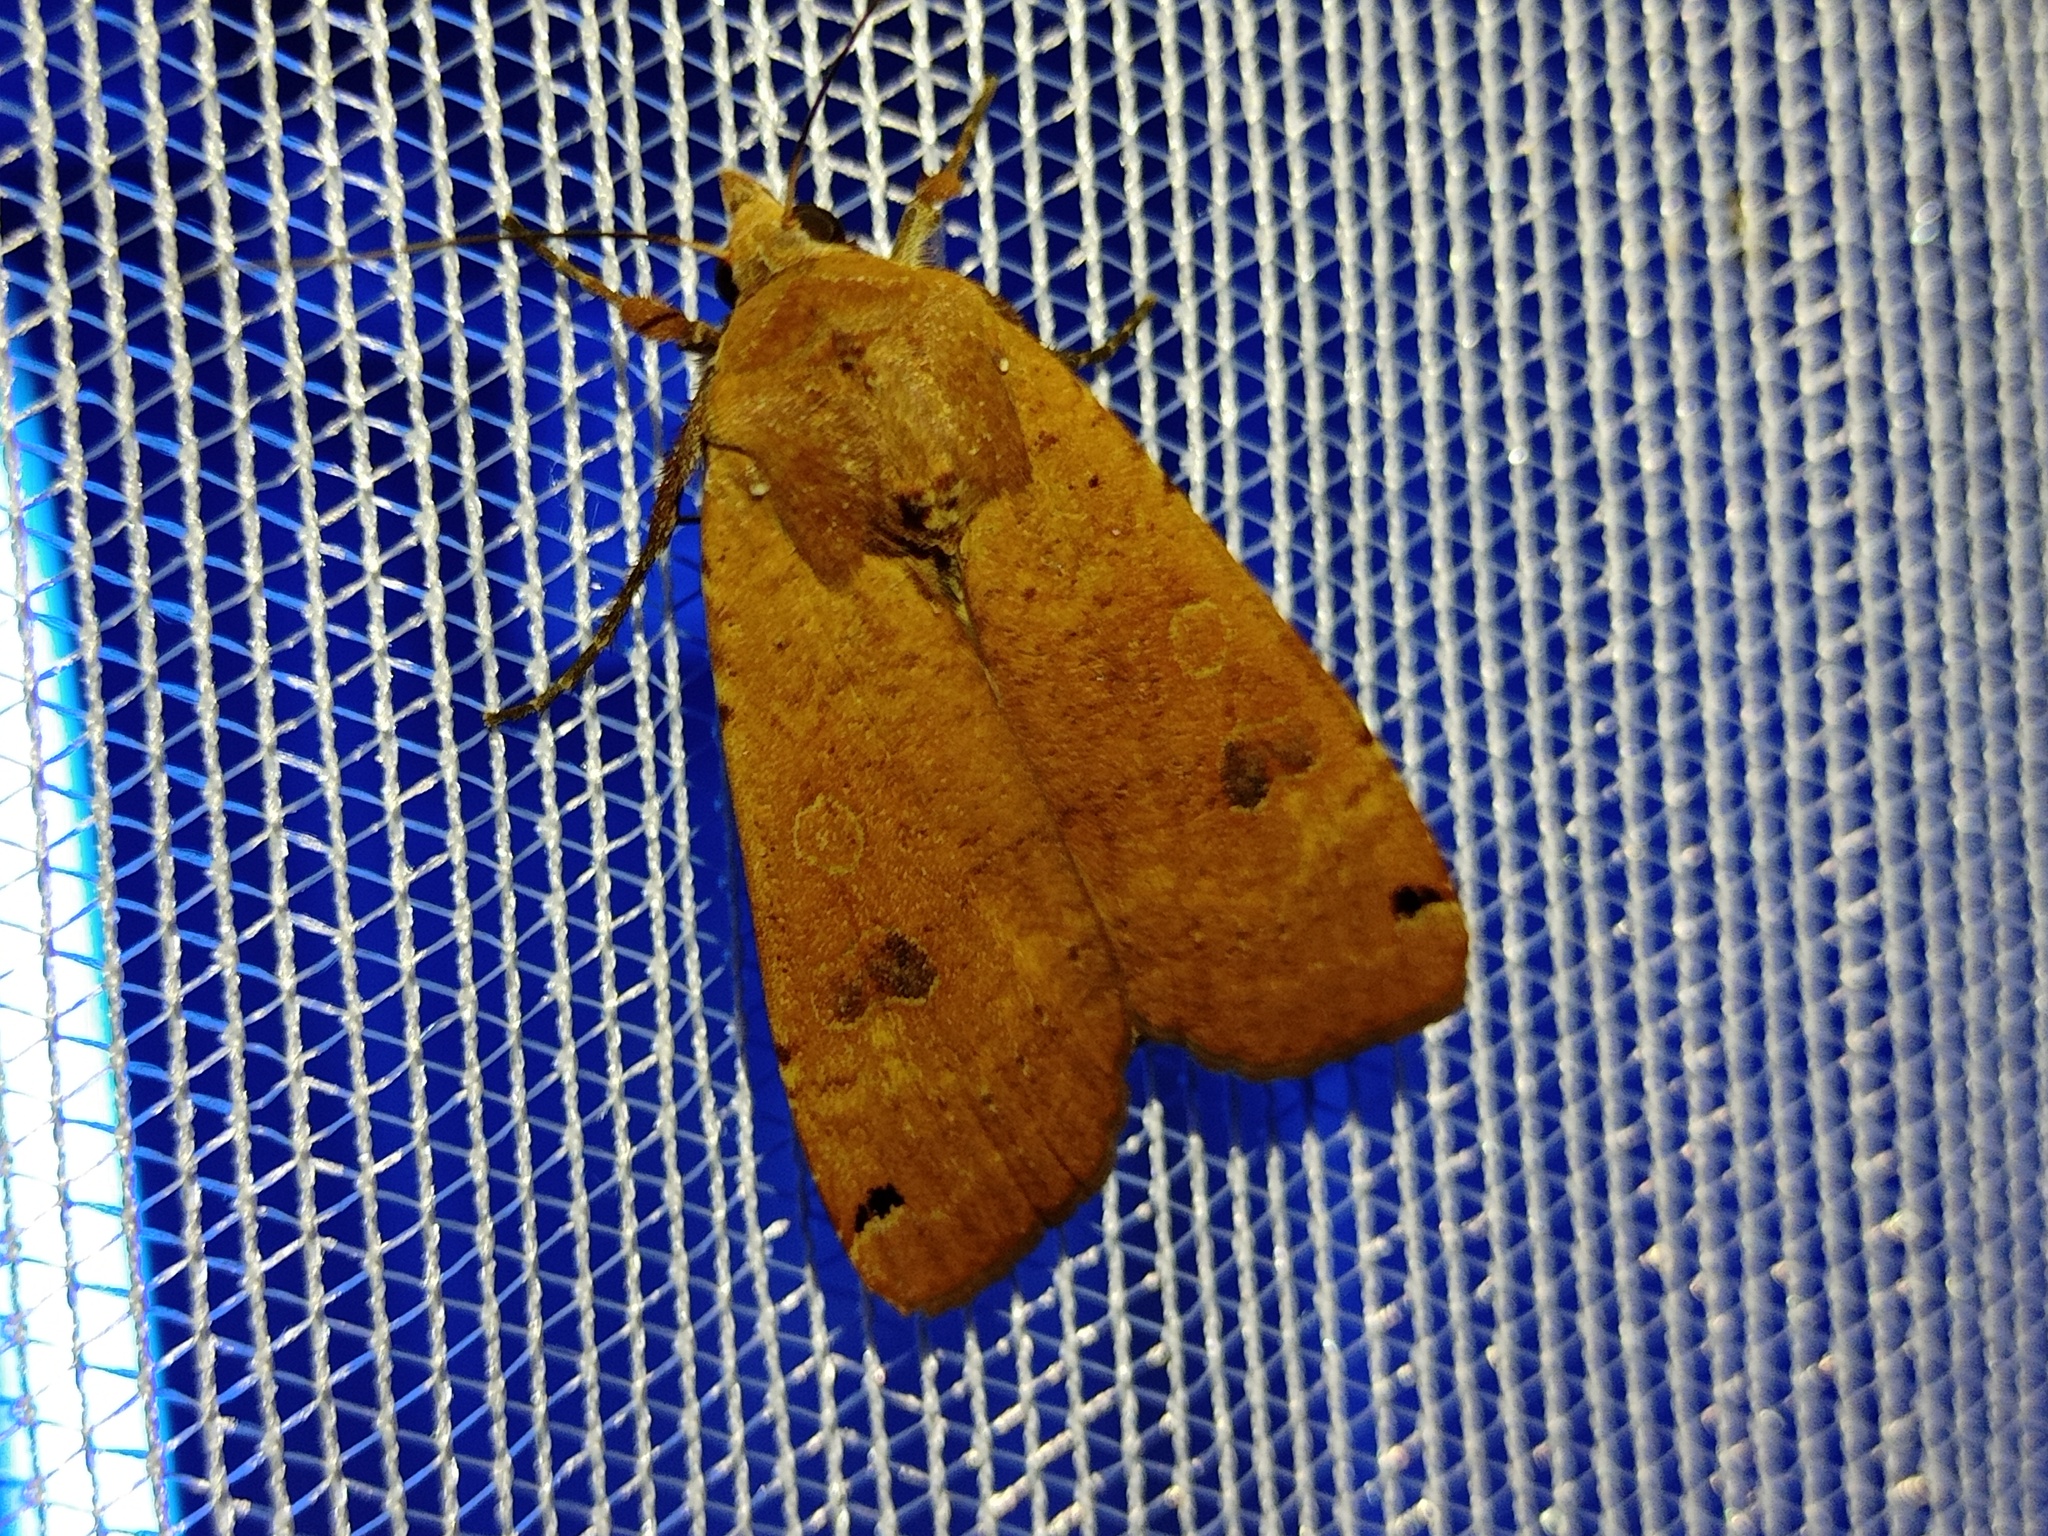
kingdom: Animalia
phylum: Arthropoda
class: Insecta
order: Lepidoptera
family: Noctuidae
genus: Noctua
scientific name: Noctua pronuba
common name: Large yellow underwing
